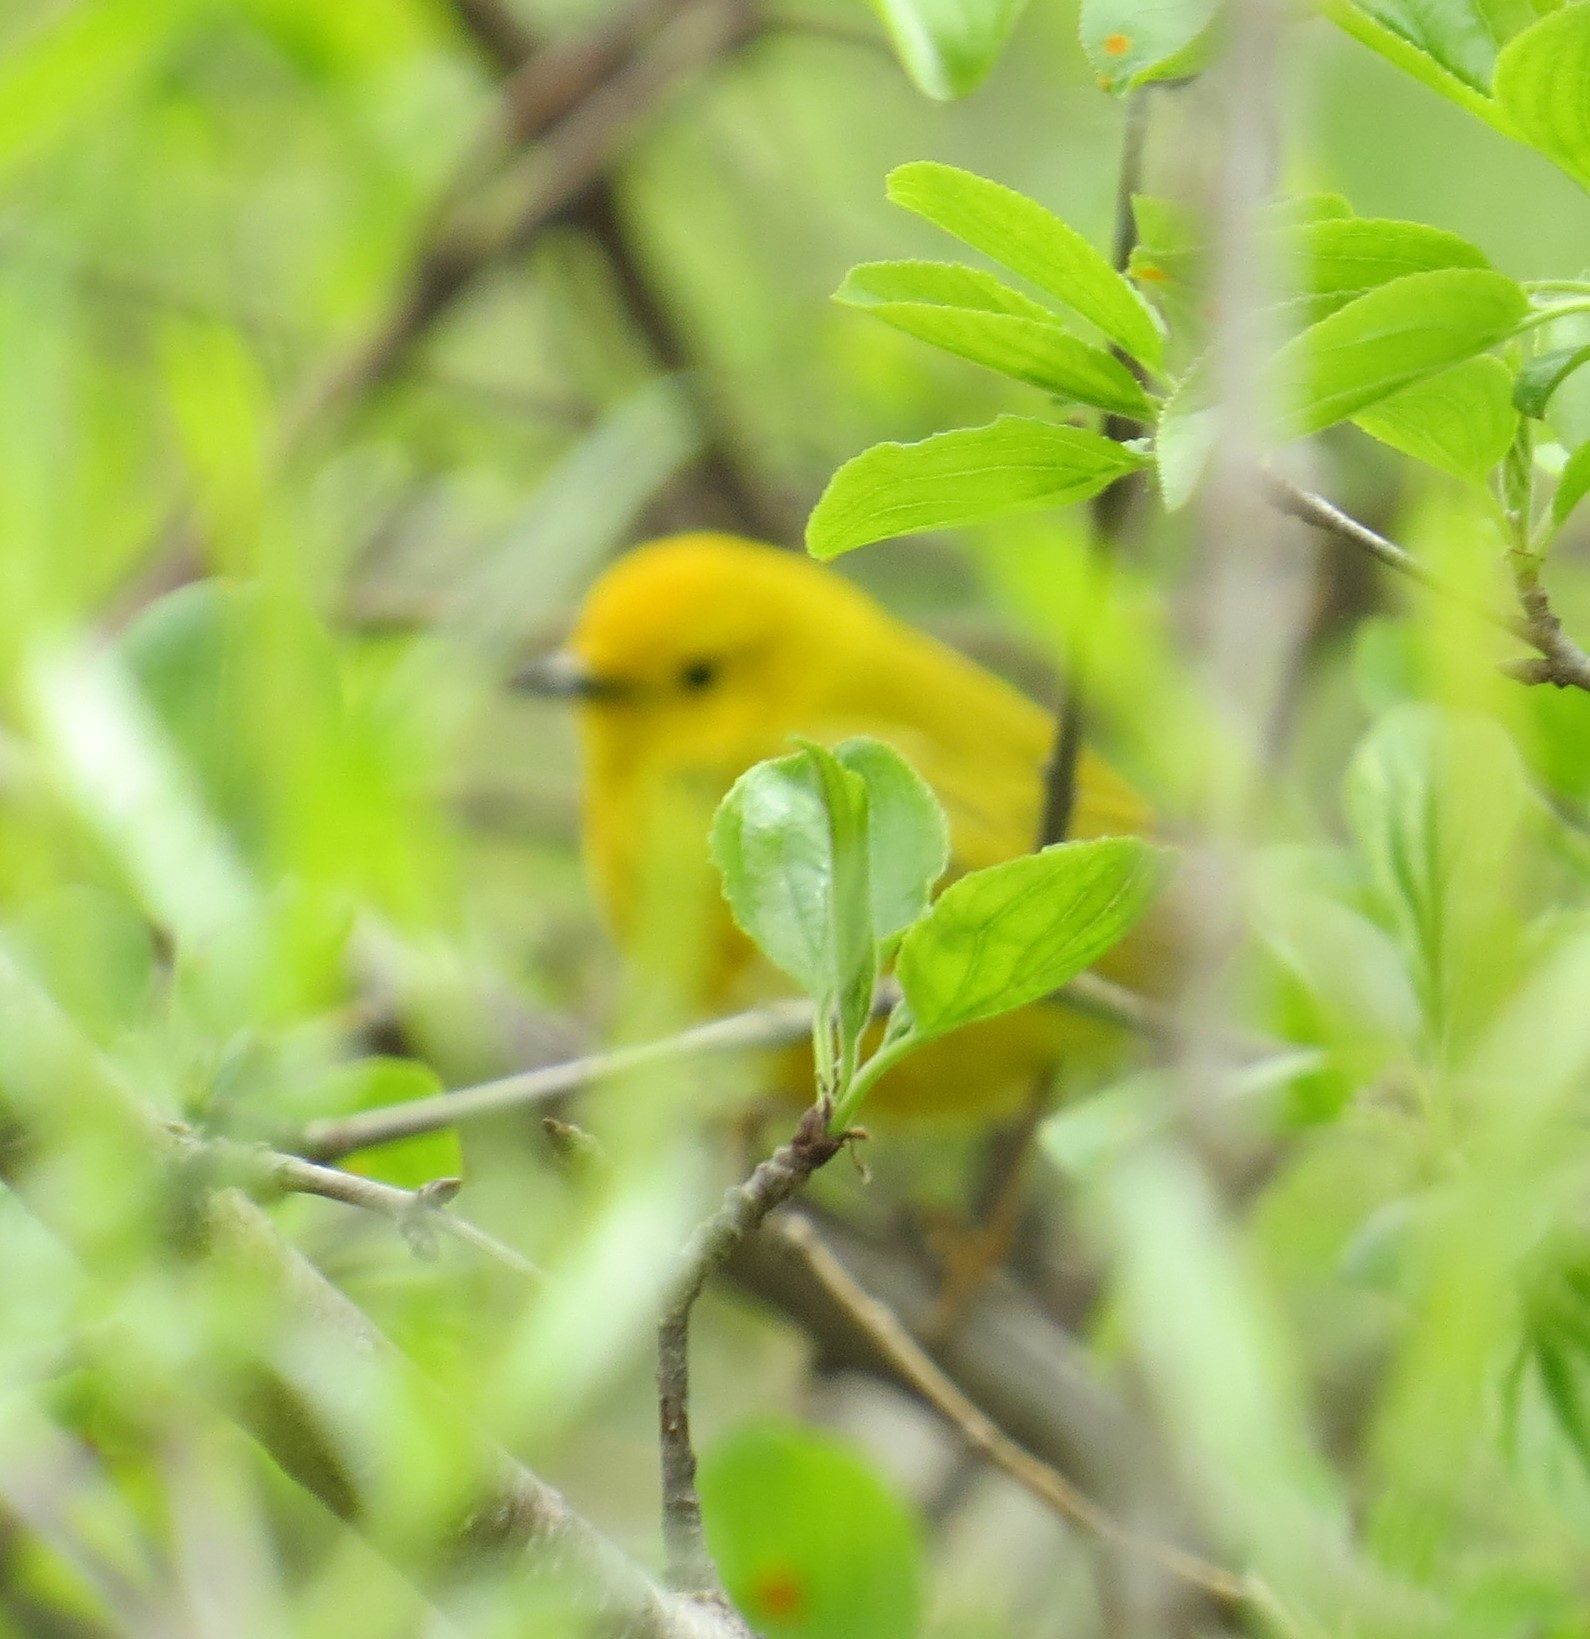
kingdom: Animalia
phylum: Chordata
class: Aves
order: Passeriformes
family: Parulidae
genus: Setophaga
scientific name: Setophaga petechia
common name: Yellow warbler
